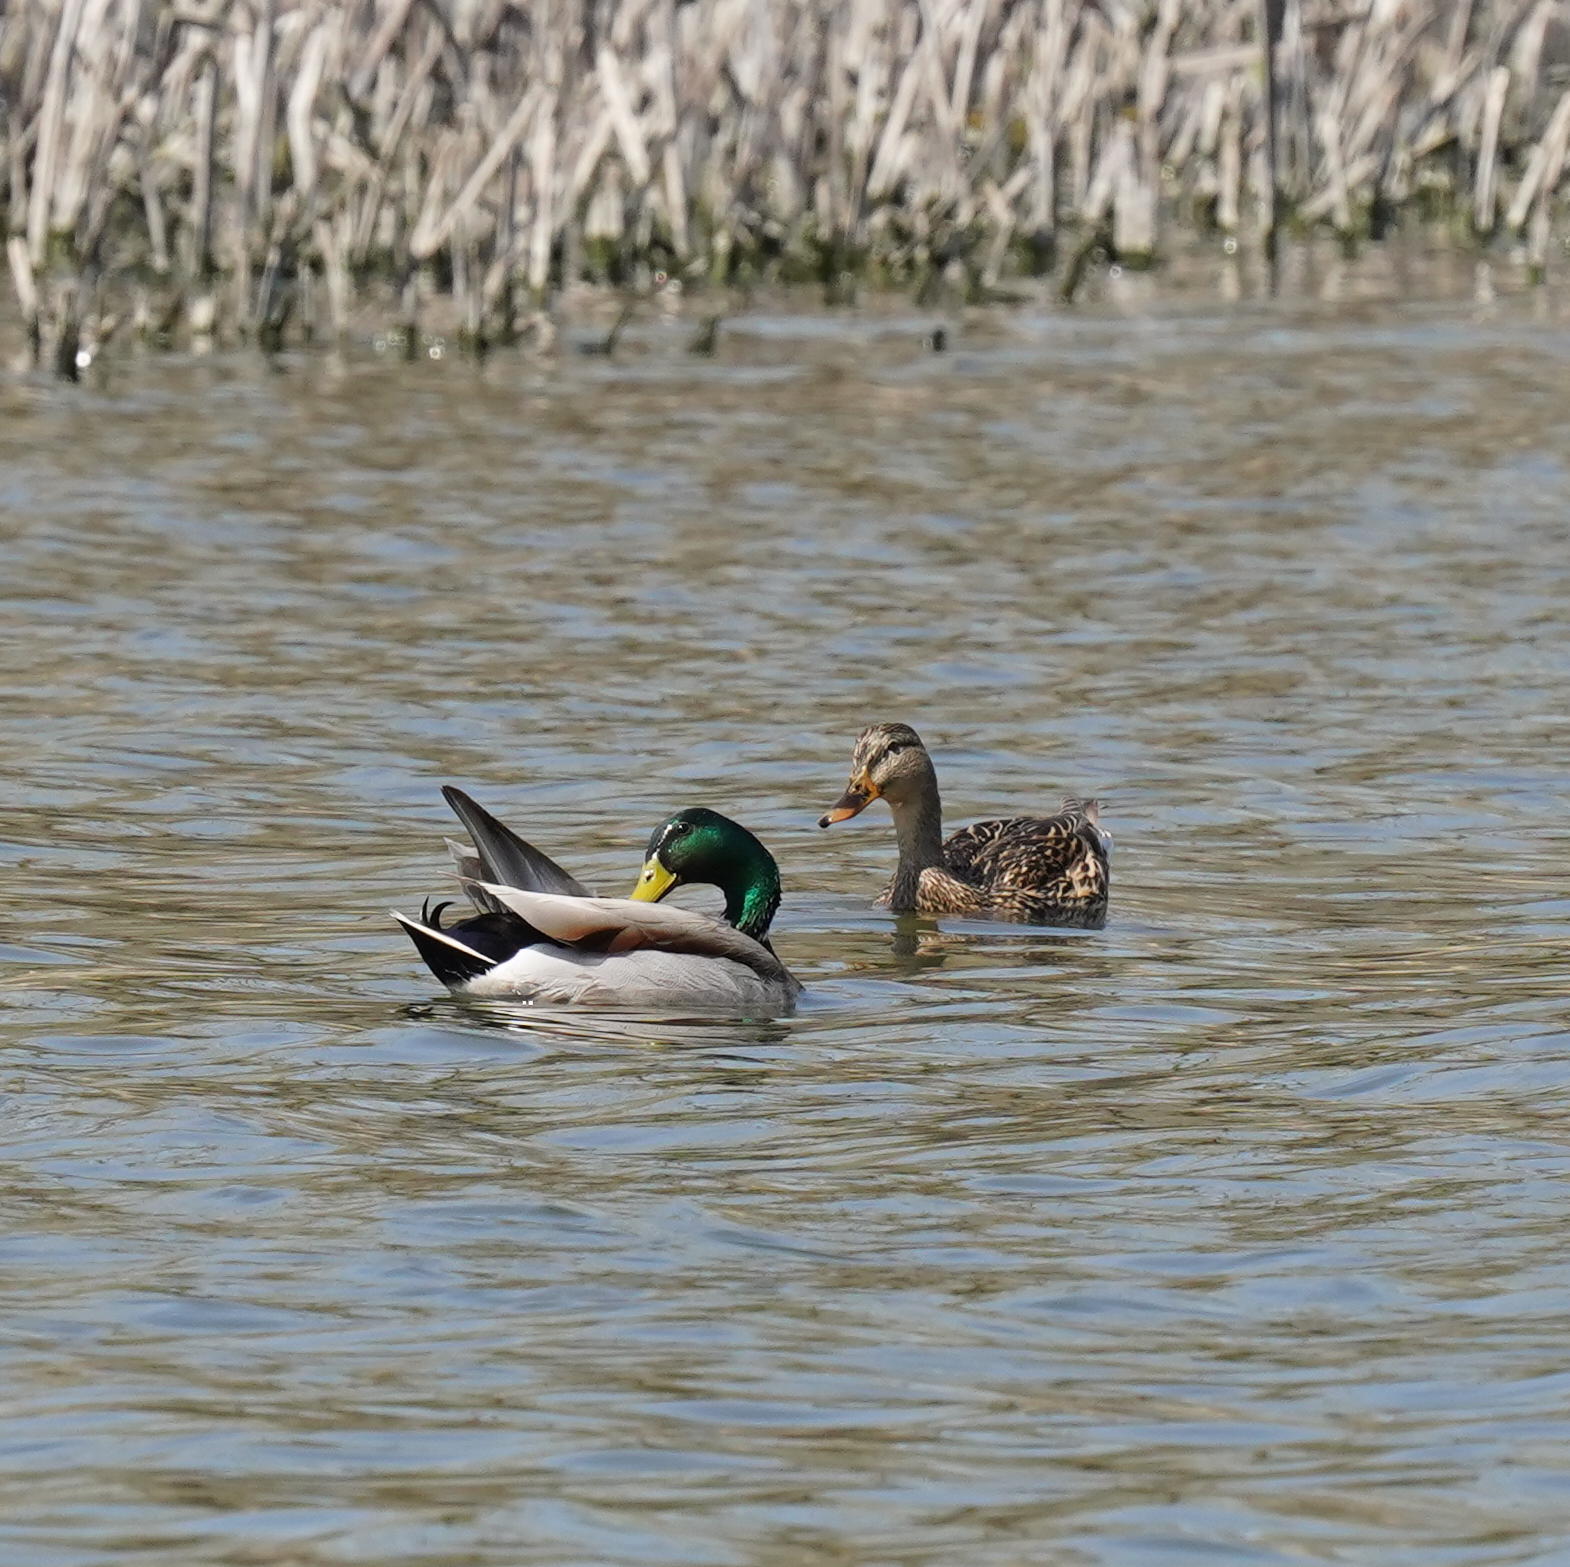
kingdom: Animalia
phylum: Chordata
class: Aves
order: Anseriformes
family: Anatidae
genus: Anas
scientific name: Anas platyrhynchos
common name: Mallard
